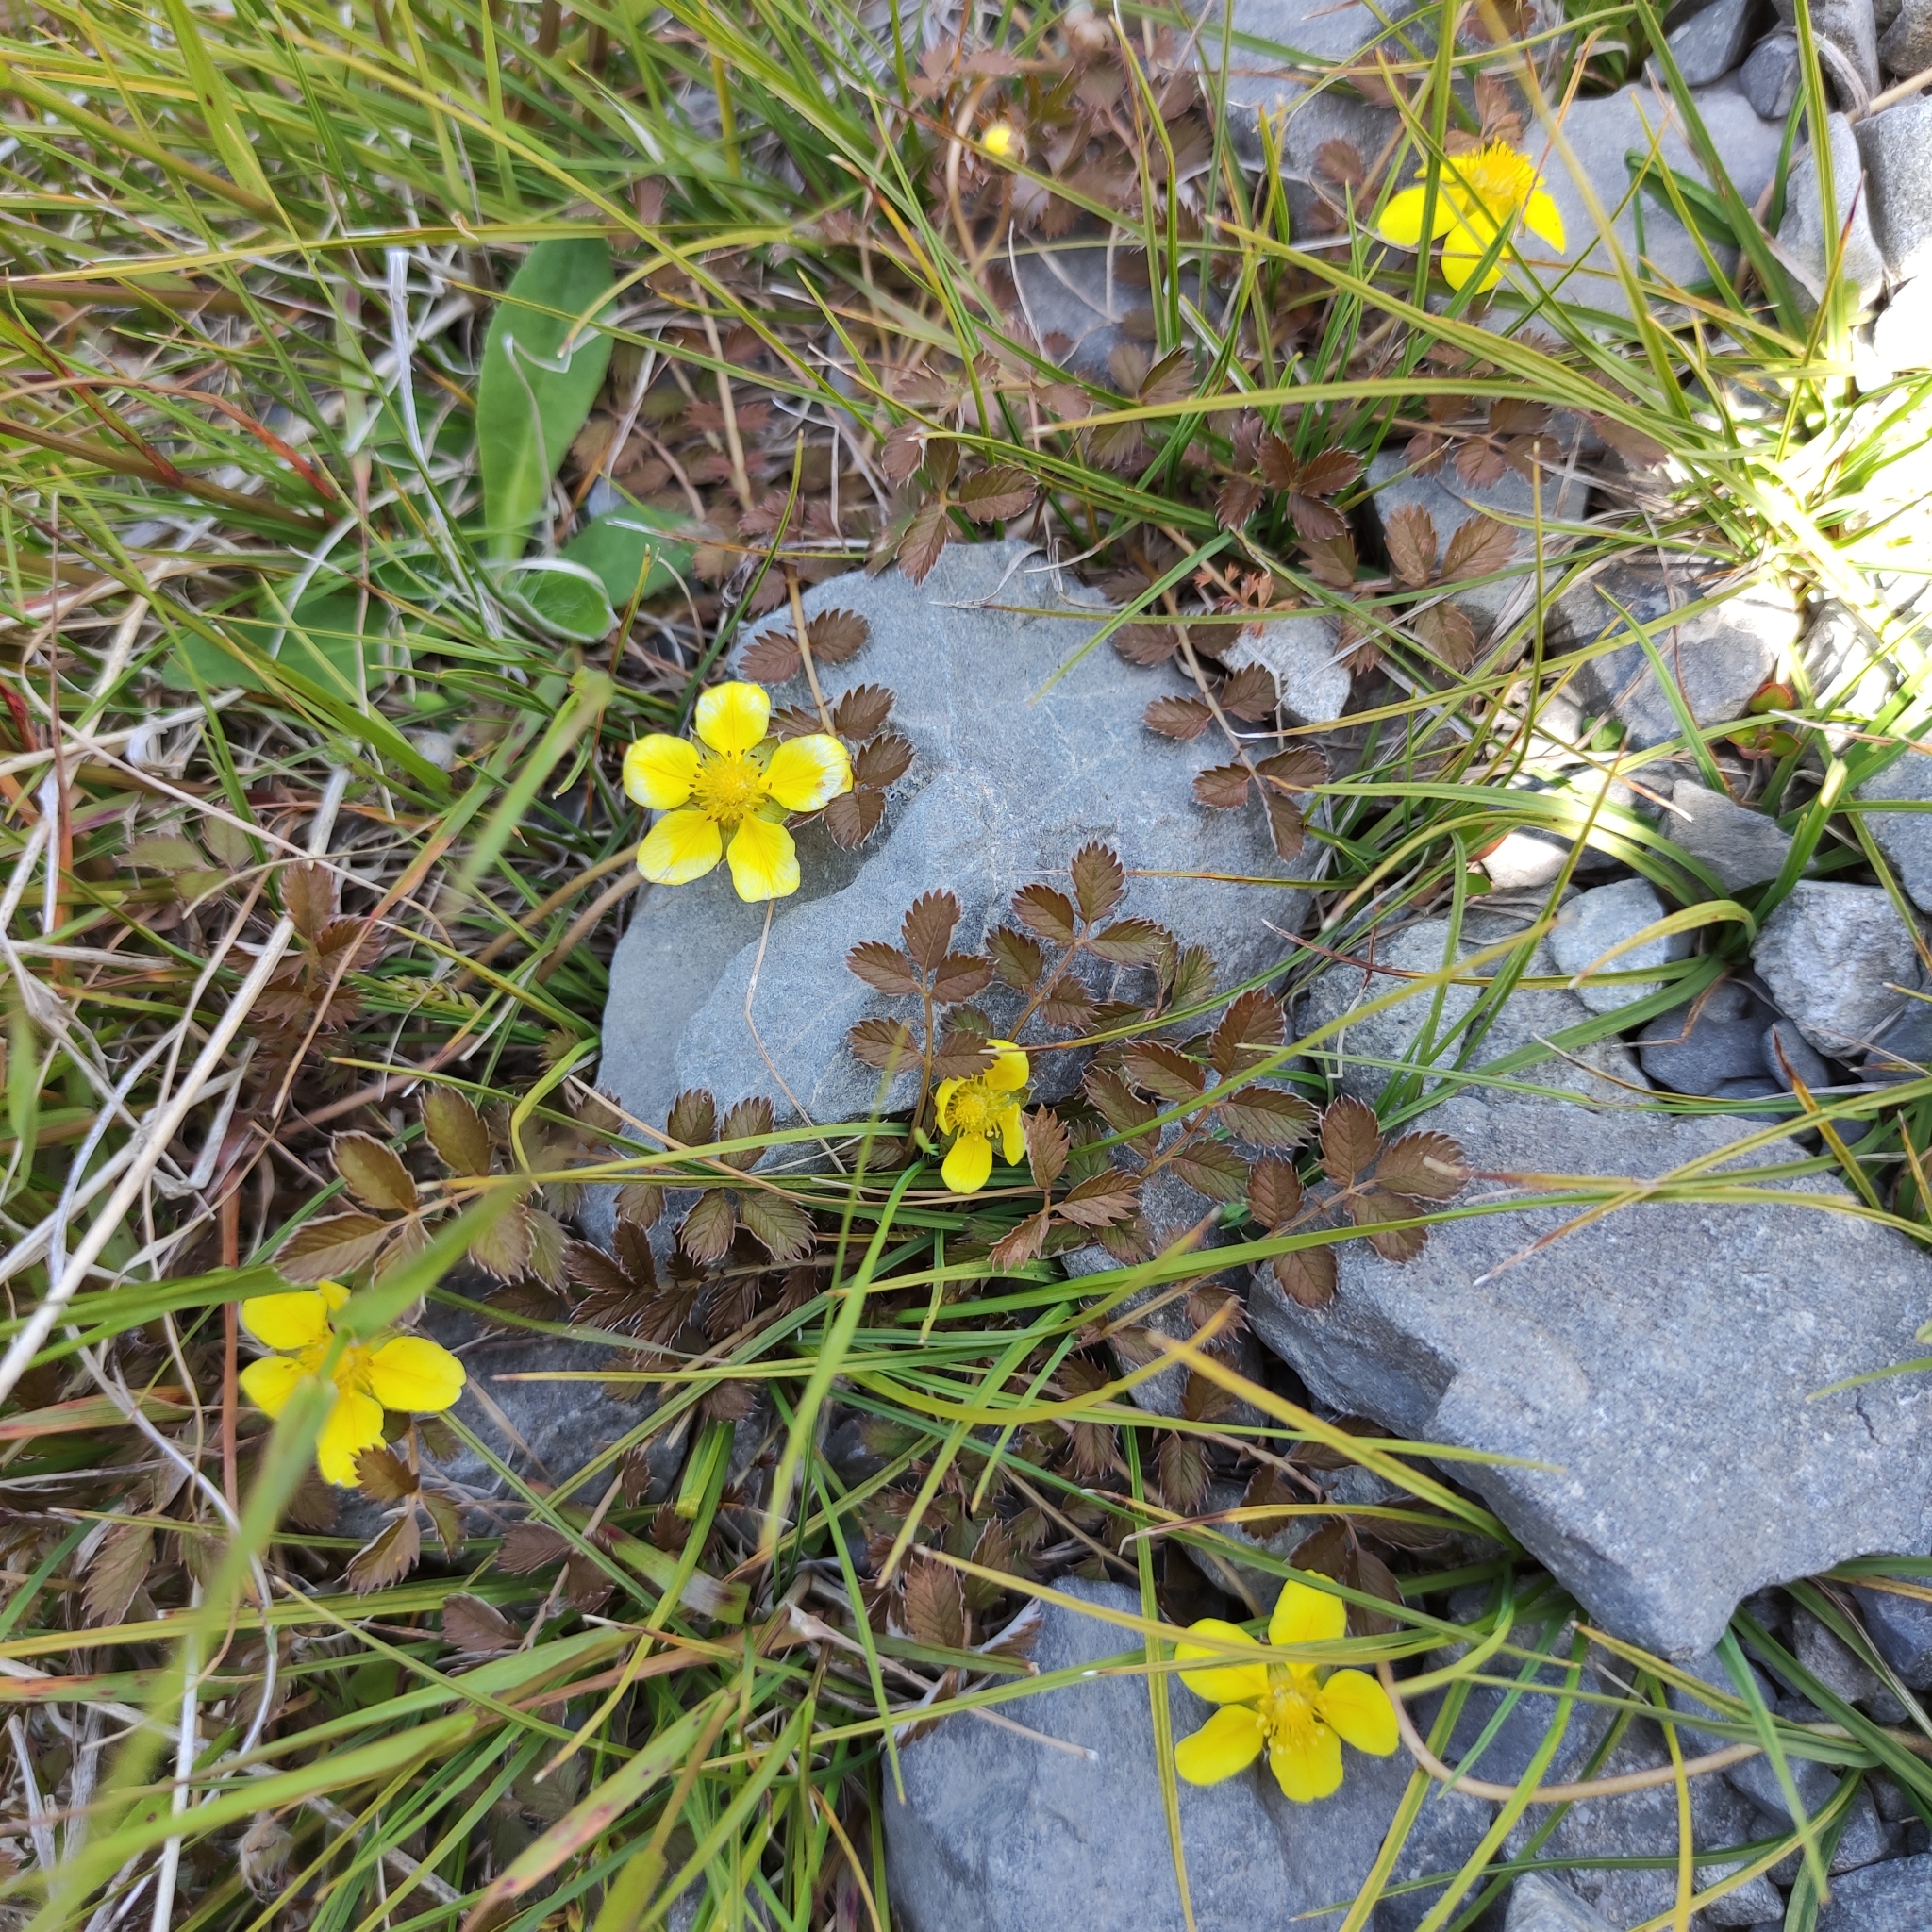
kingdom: Plantae
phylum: Tracheophyta
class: Magnoliopsida
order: Rosales
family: Rosaceae
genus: Argentina
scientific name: Argentina anserinoides
